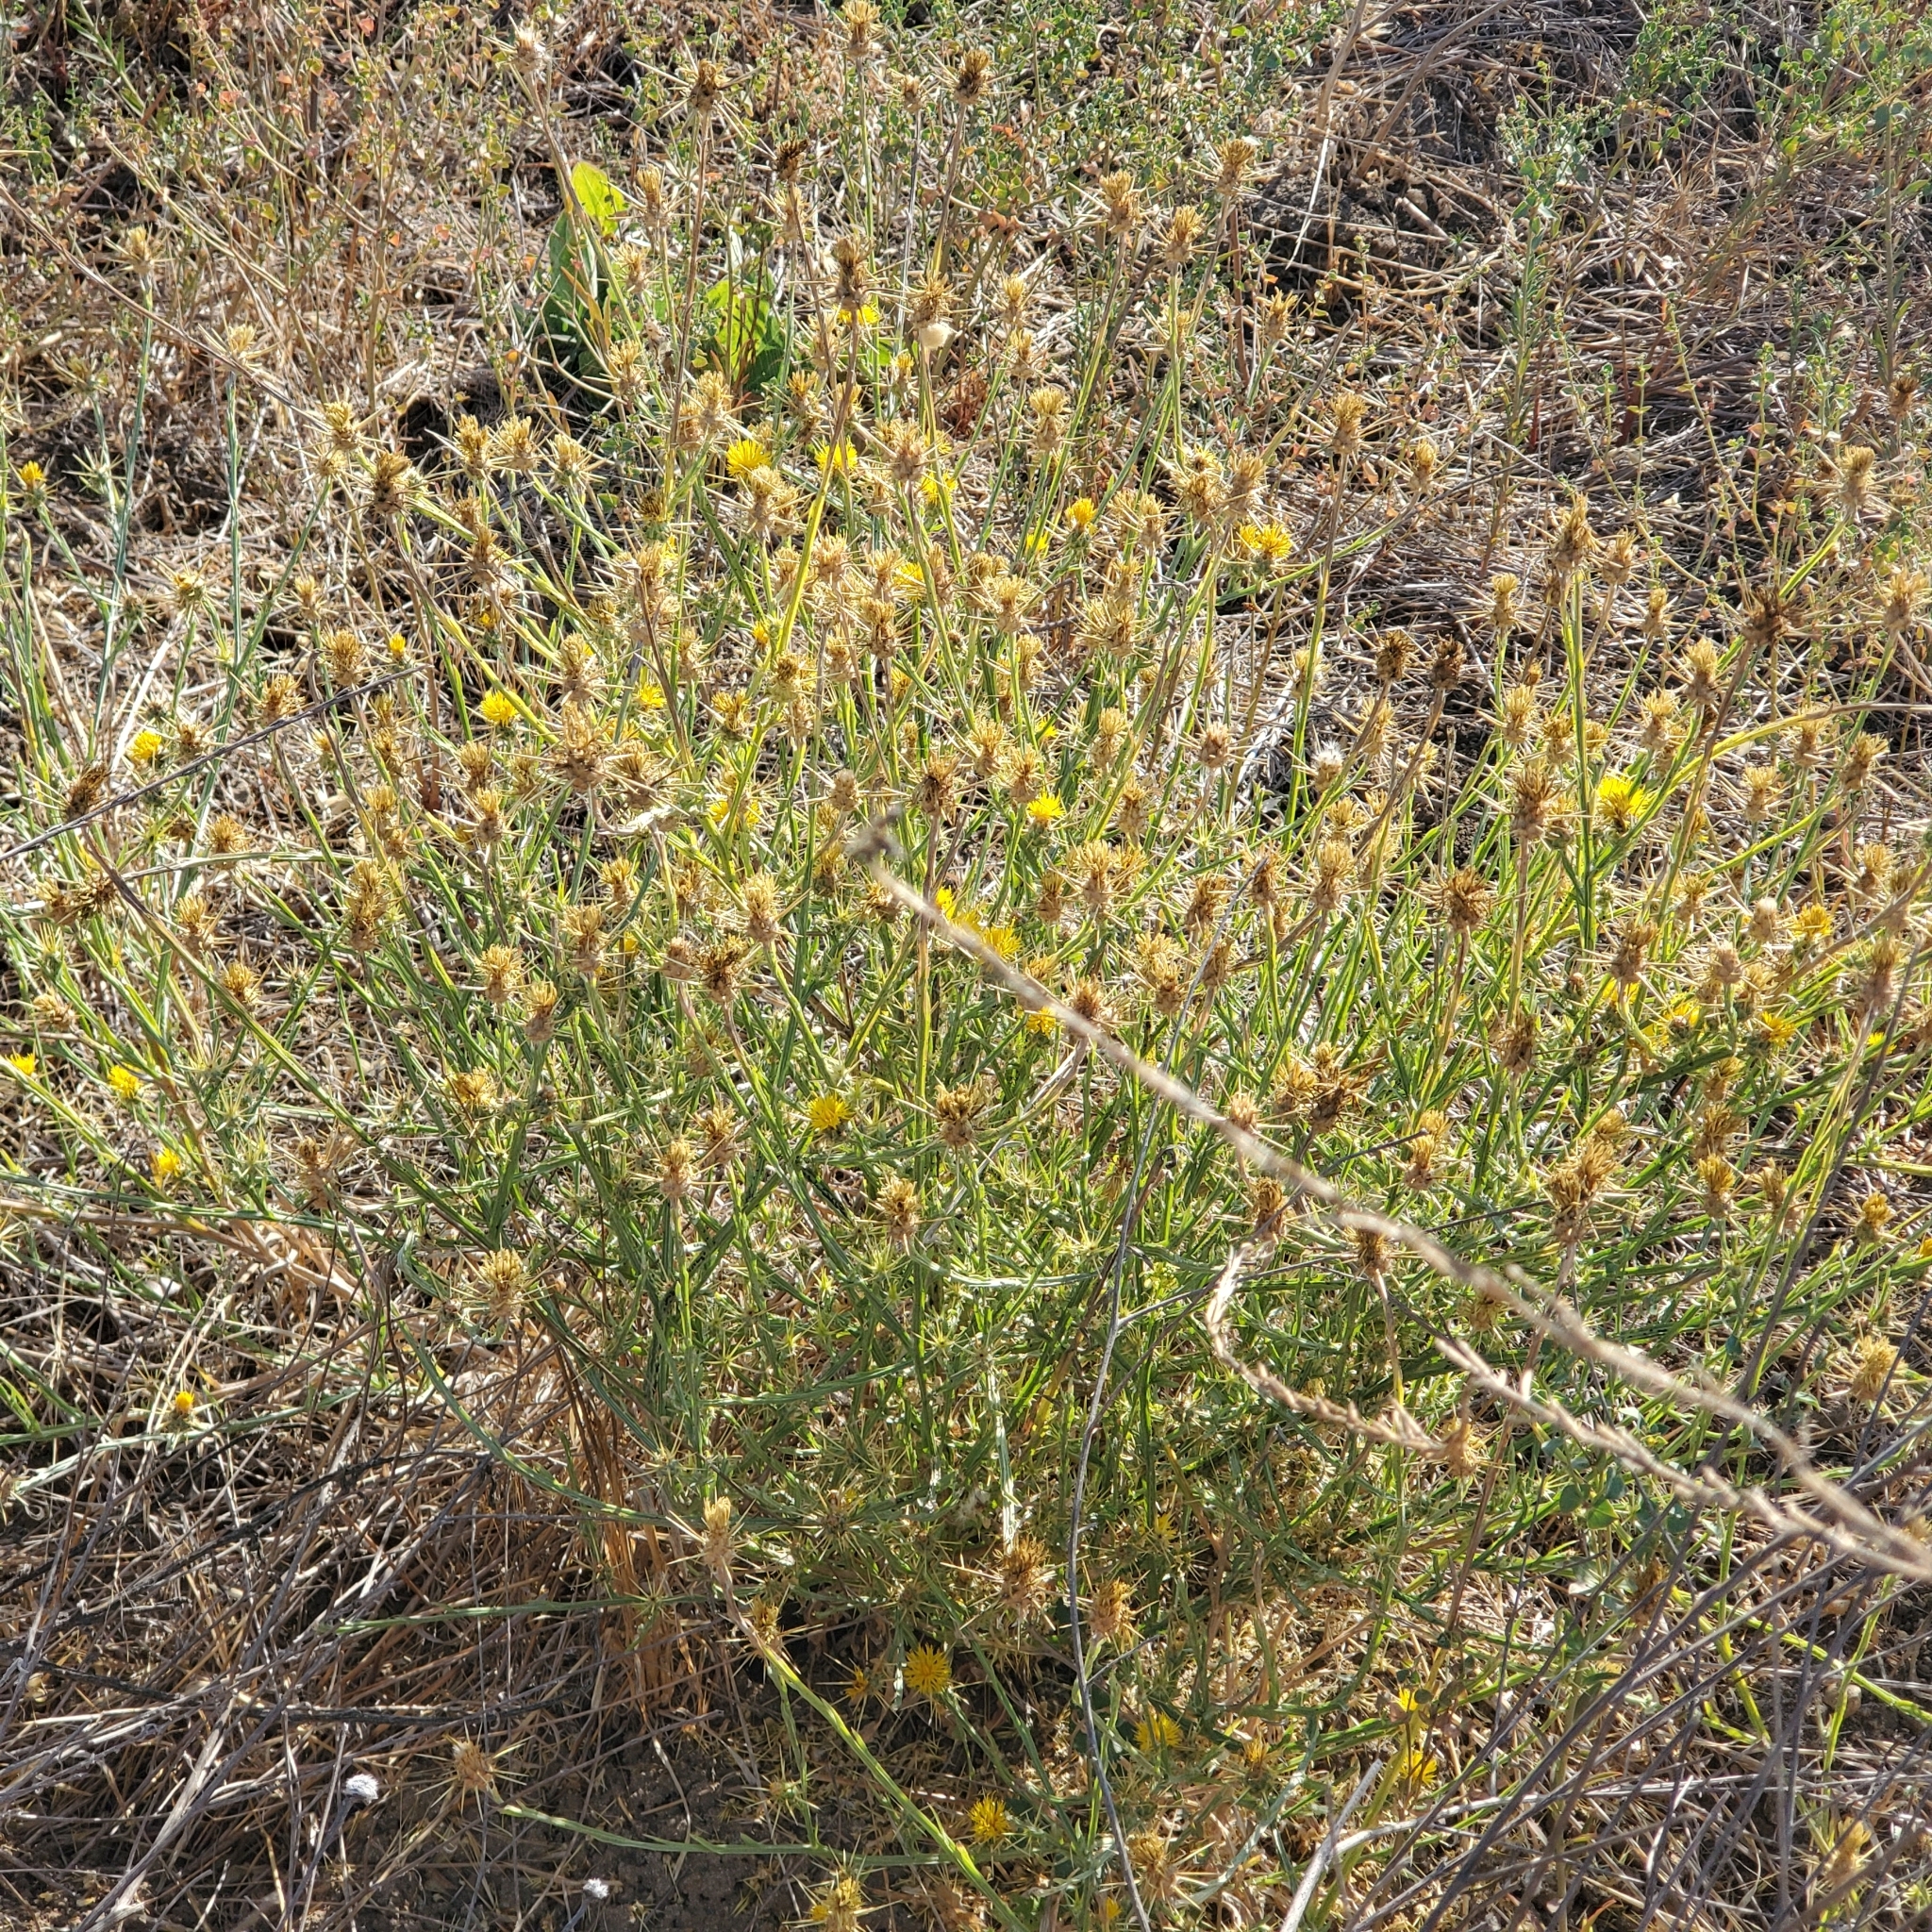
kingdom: Plantae
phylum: Tracheophyta
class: Magnoliopsida
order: Asterales
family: Asteraceae
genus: Centaurea
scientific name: Centaurea solstitialis
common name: Yellow star-thistle
